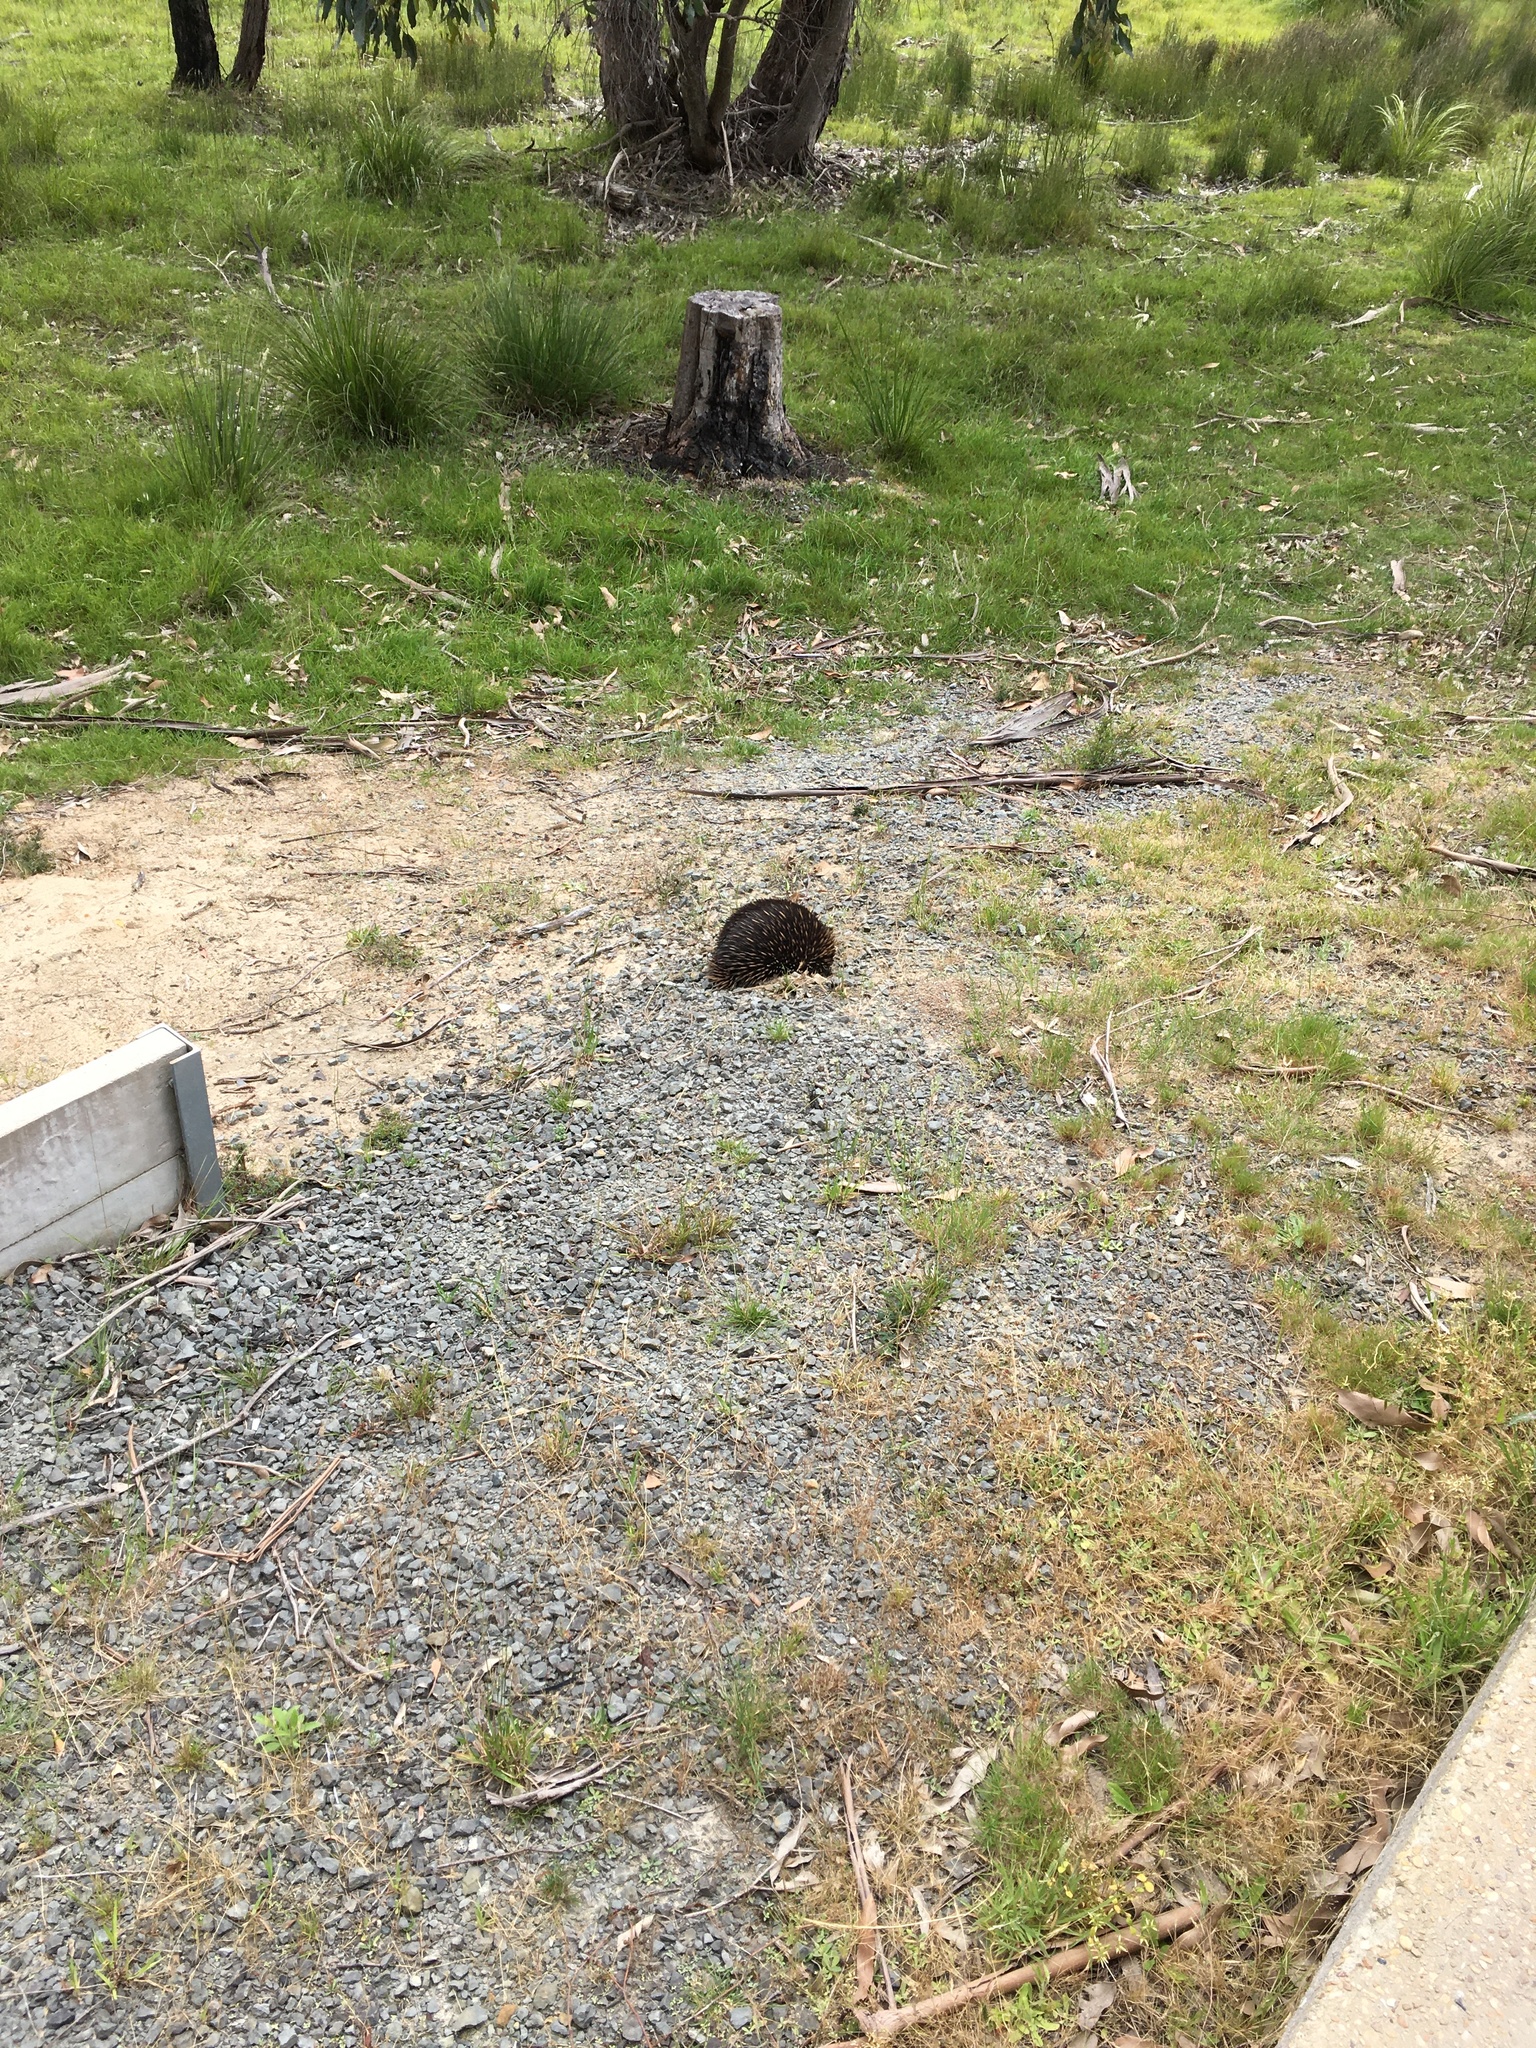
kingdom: Animalia
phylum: Chordata
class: Mammalia
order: Monotremata
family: Tachyglossidae
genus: Tachyglossus
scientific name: Tachyglossus aculeatus
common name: Short-beaked echidna
